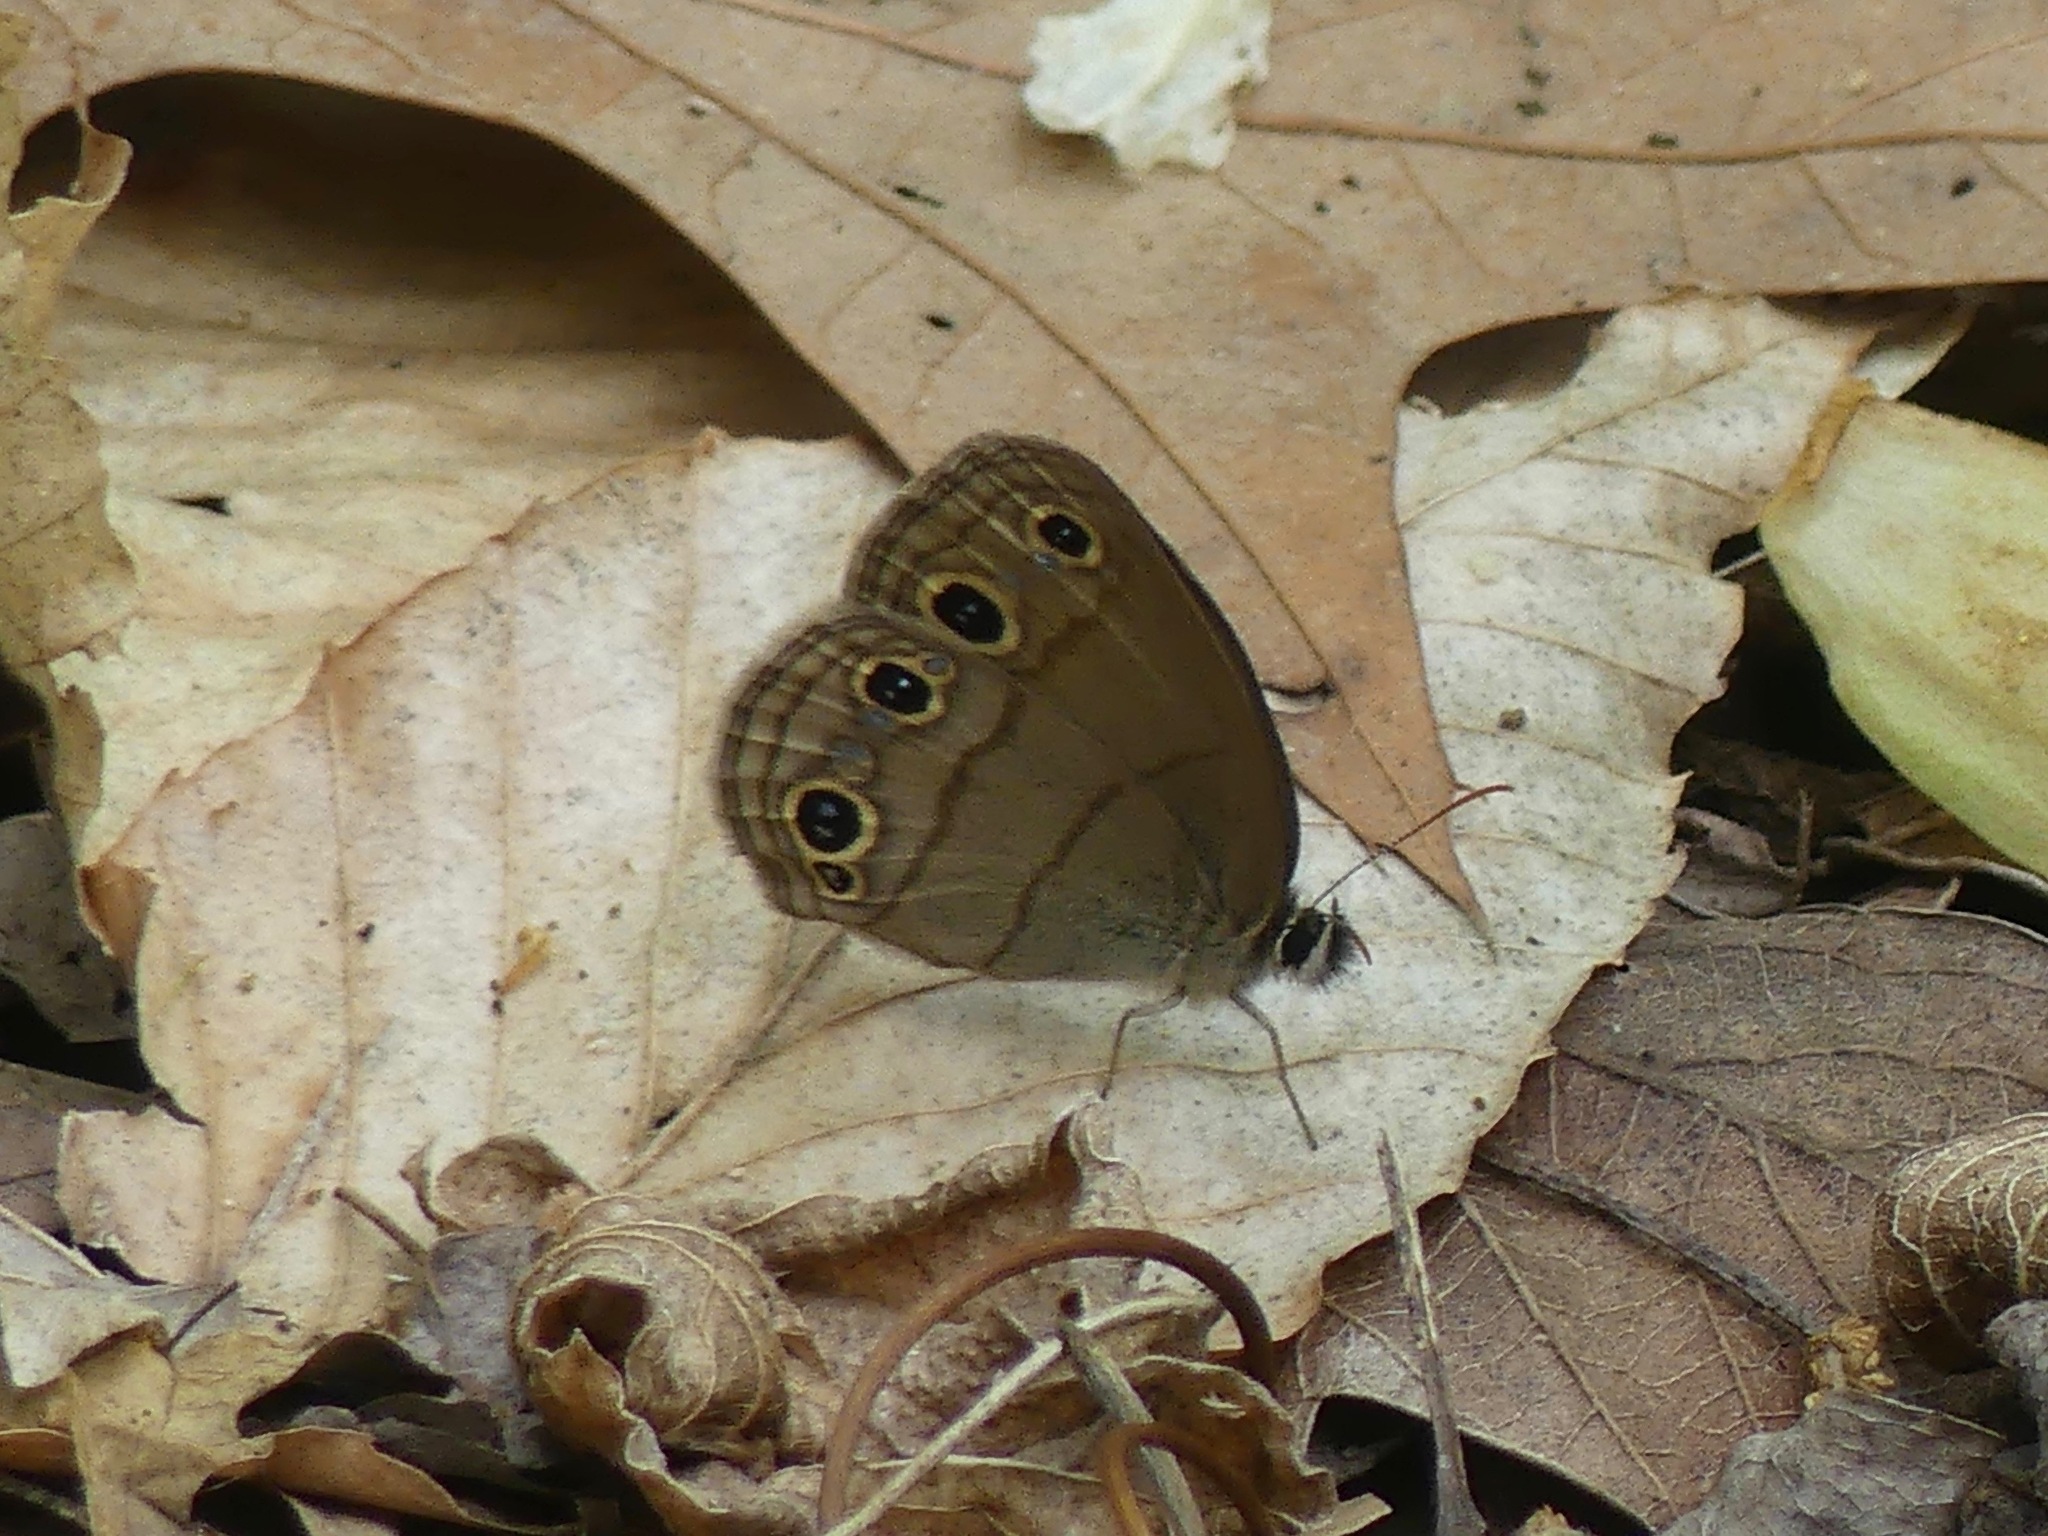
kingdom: Animalia
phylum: Arthropoda
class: Insecta
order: Lepidoptera
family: Nymphalidae
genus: Euptychia
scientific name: Euptychia cymela
